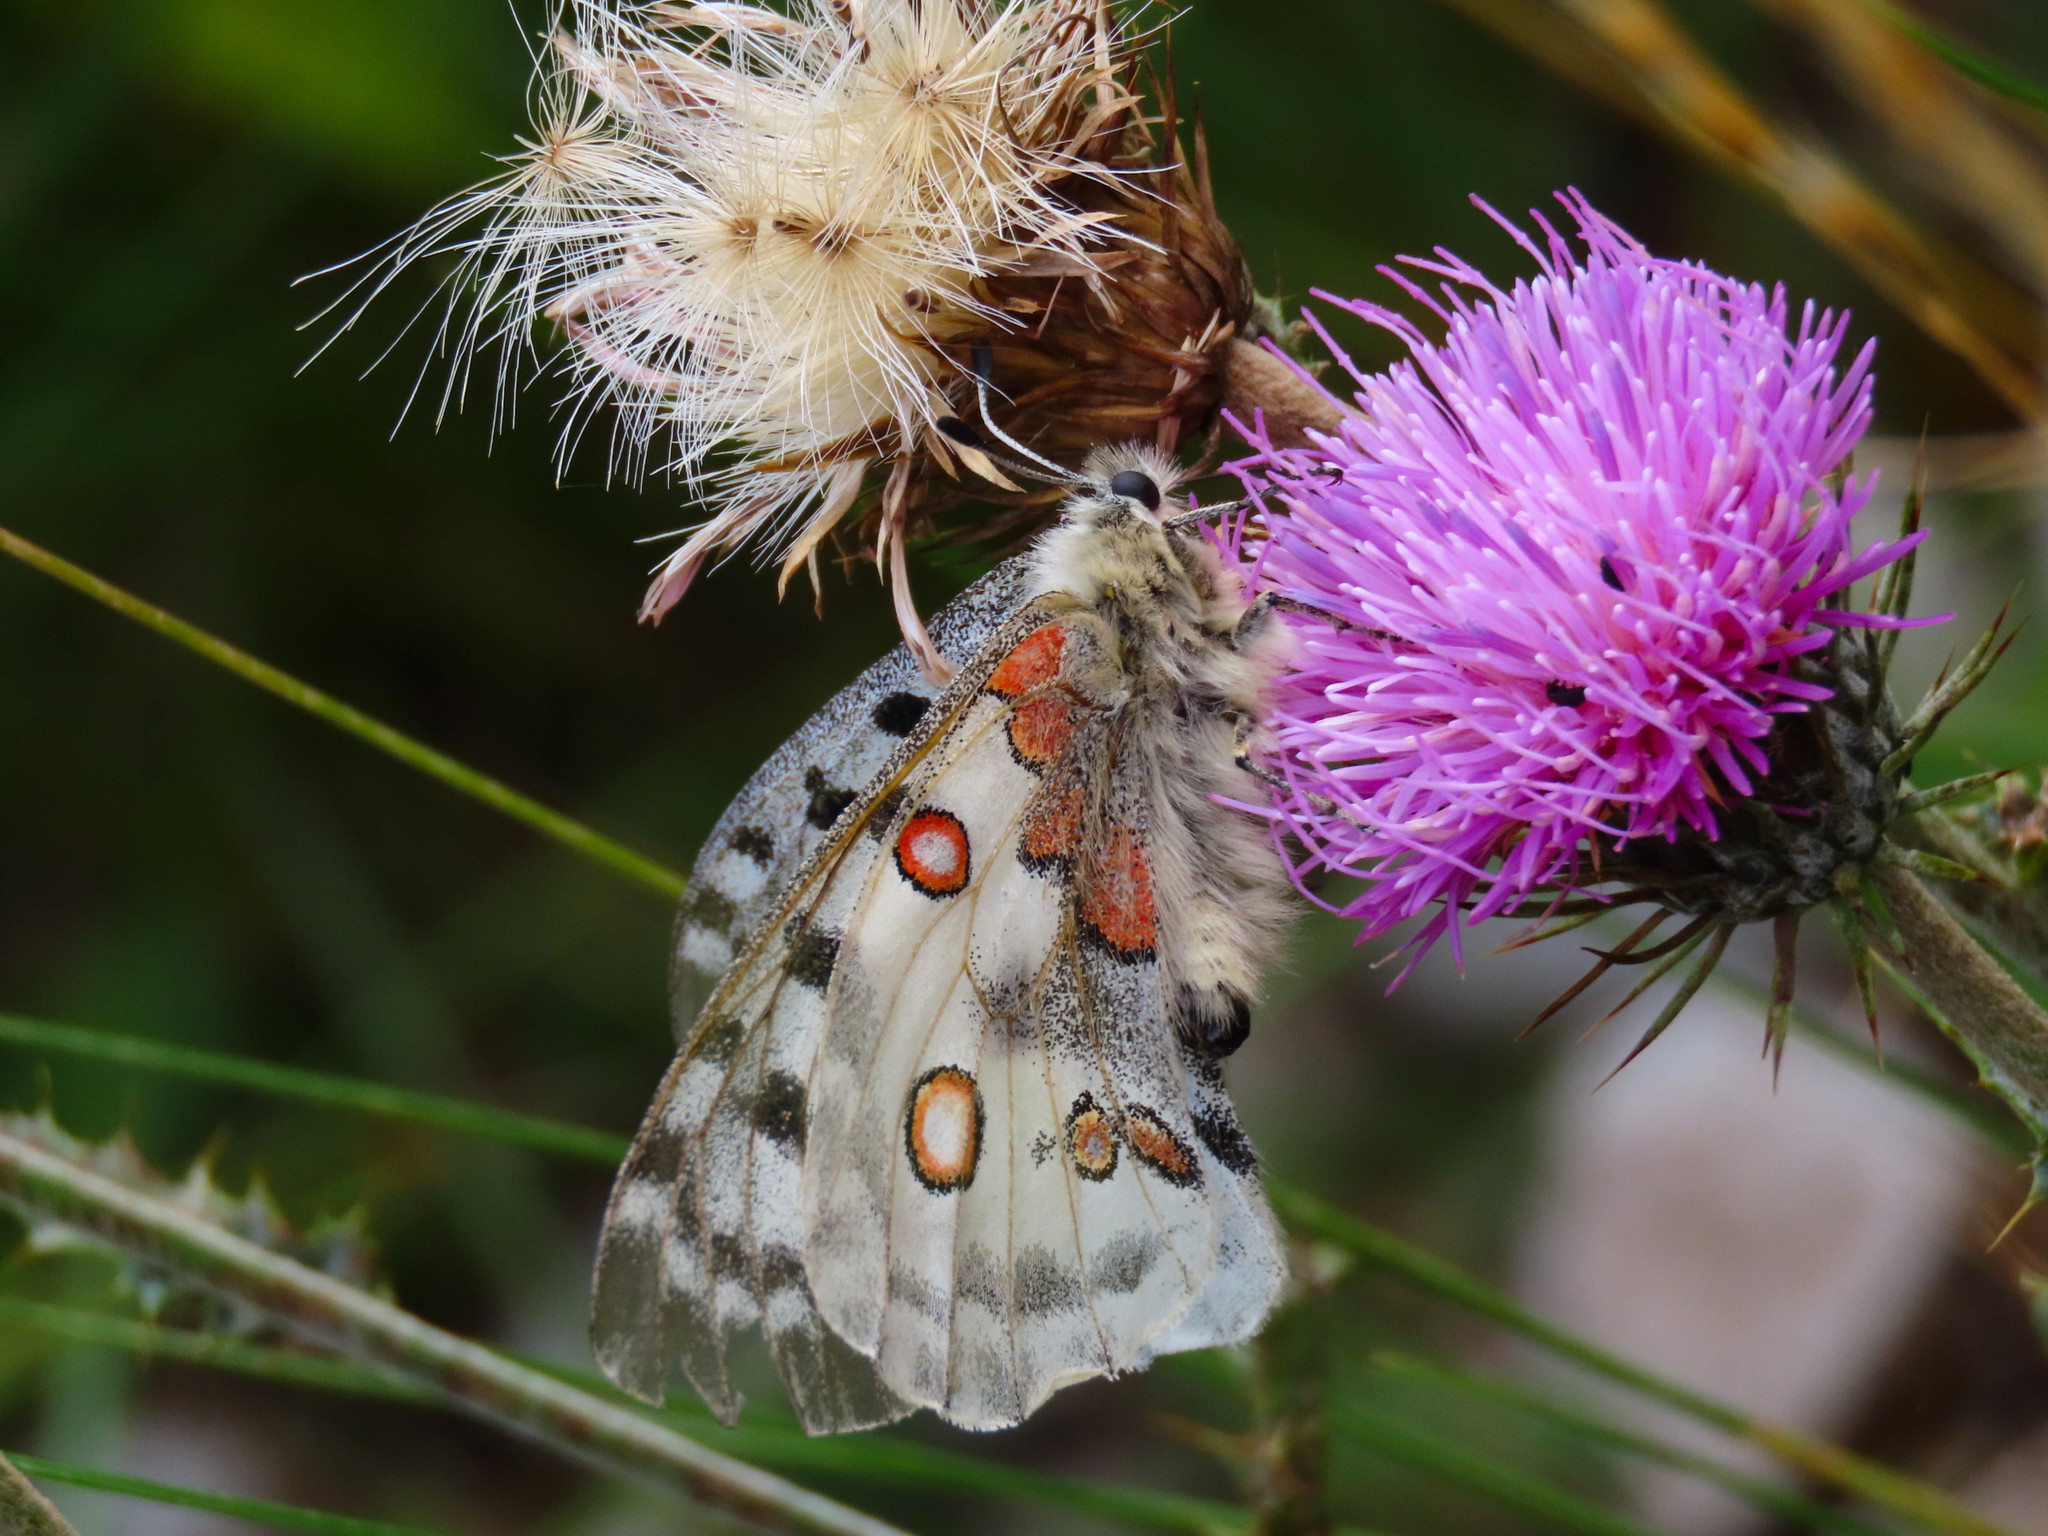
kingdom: Animalia
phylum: Arthropoda
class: Insecta
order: Lepidoptera
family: Papilionidae
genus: Parnassius
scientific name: Parnassius apollo
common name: Apollo
